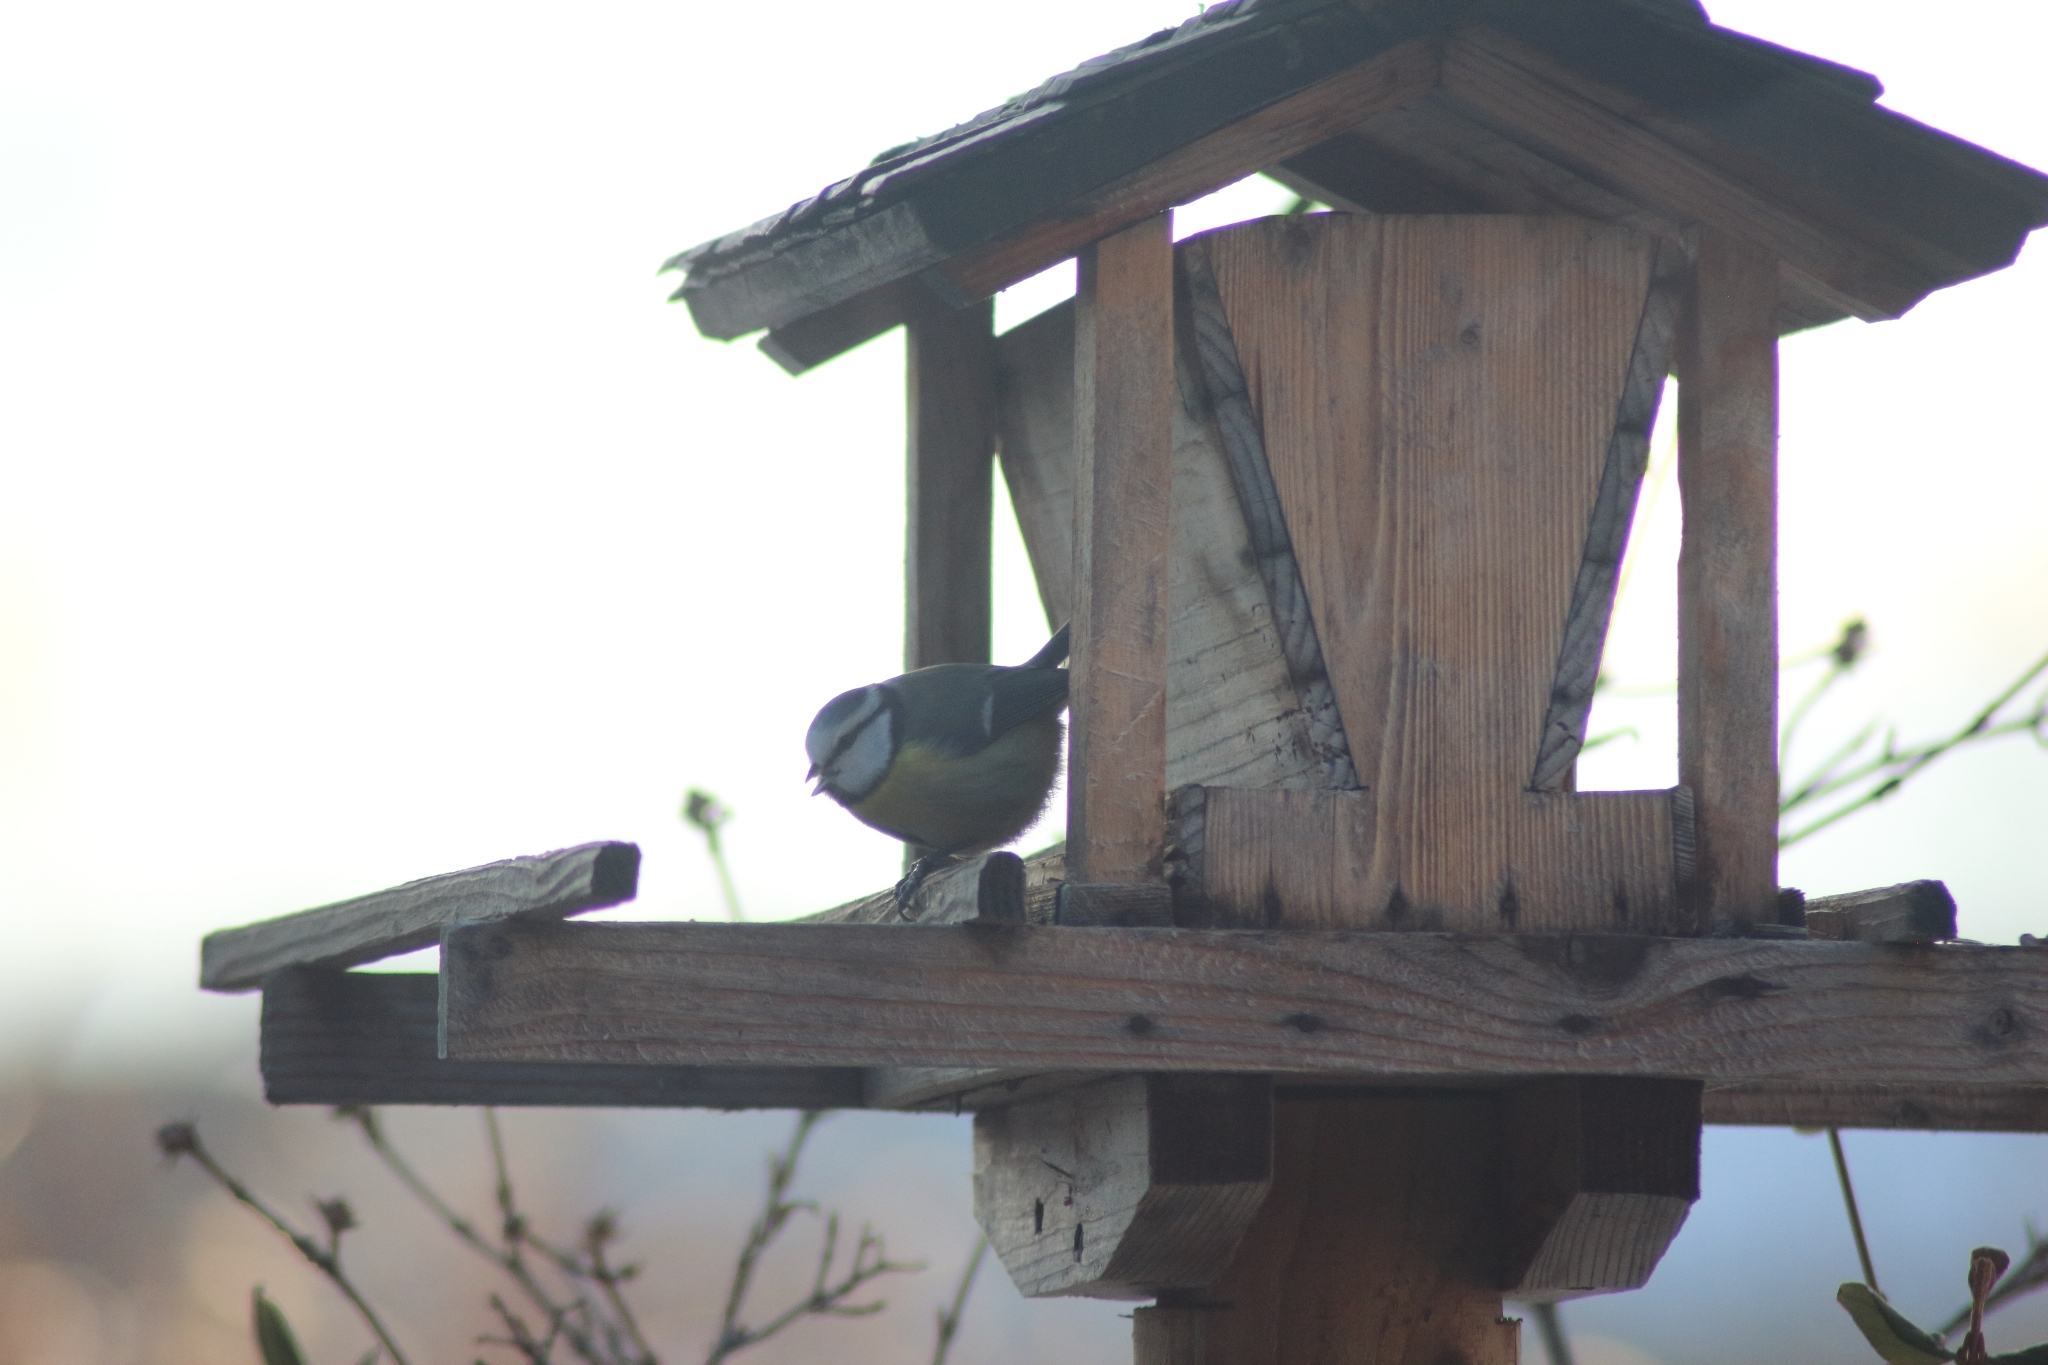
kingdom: Animalia
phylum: Chordata
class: Aves
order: Passeriformes
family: Paridae
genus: Cyanistes
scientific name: Cyanistes caeruleus
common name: Eurasian blue tit
